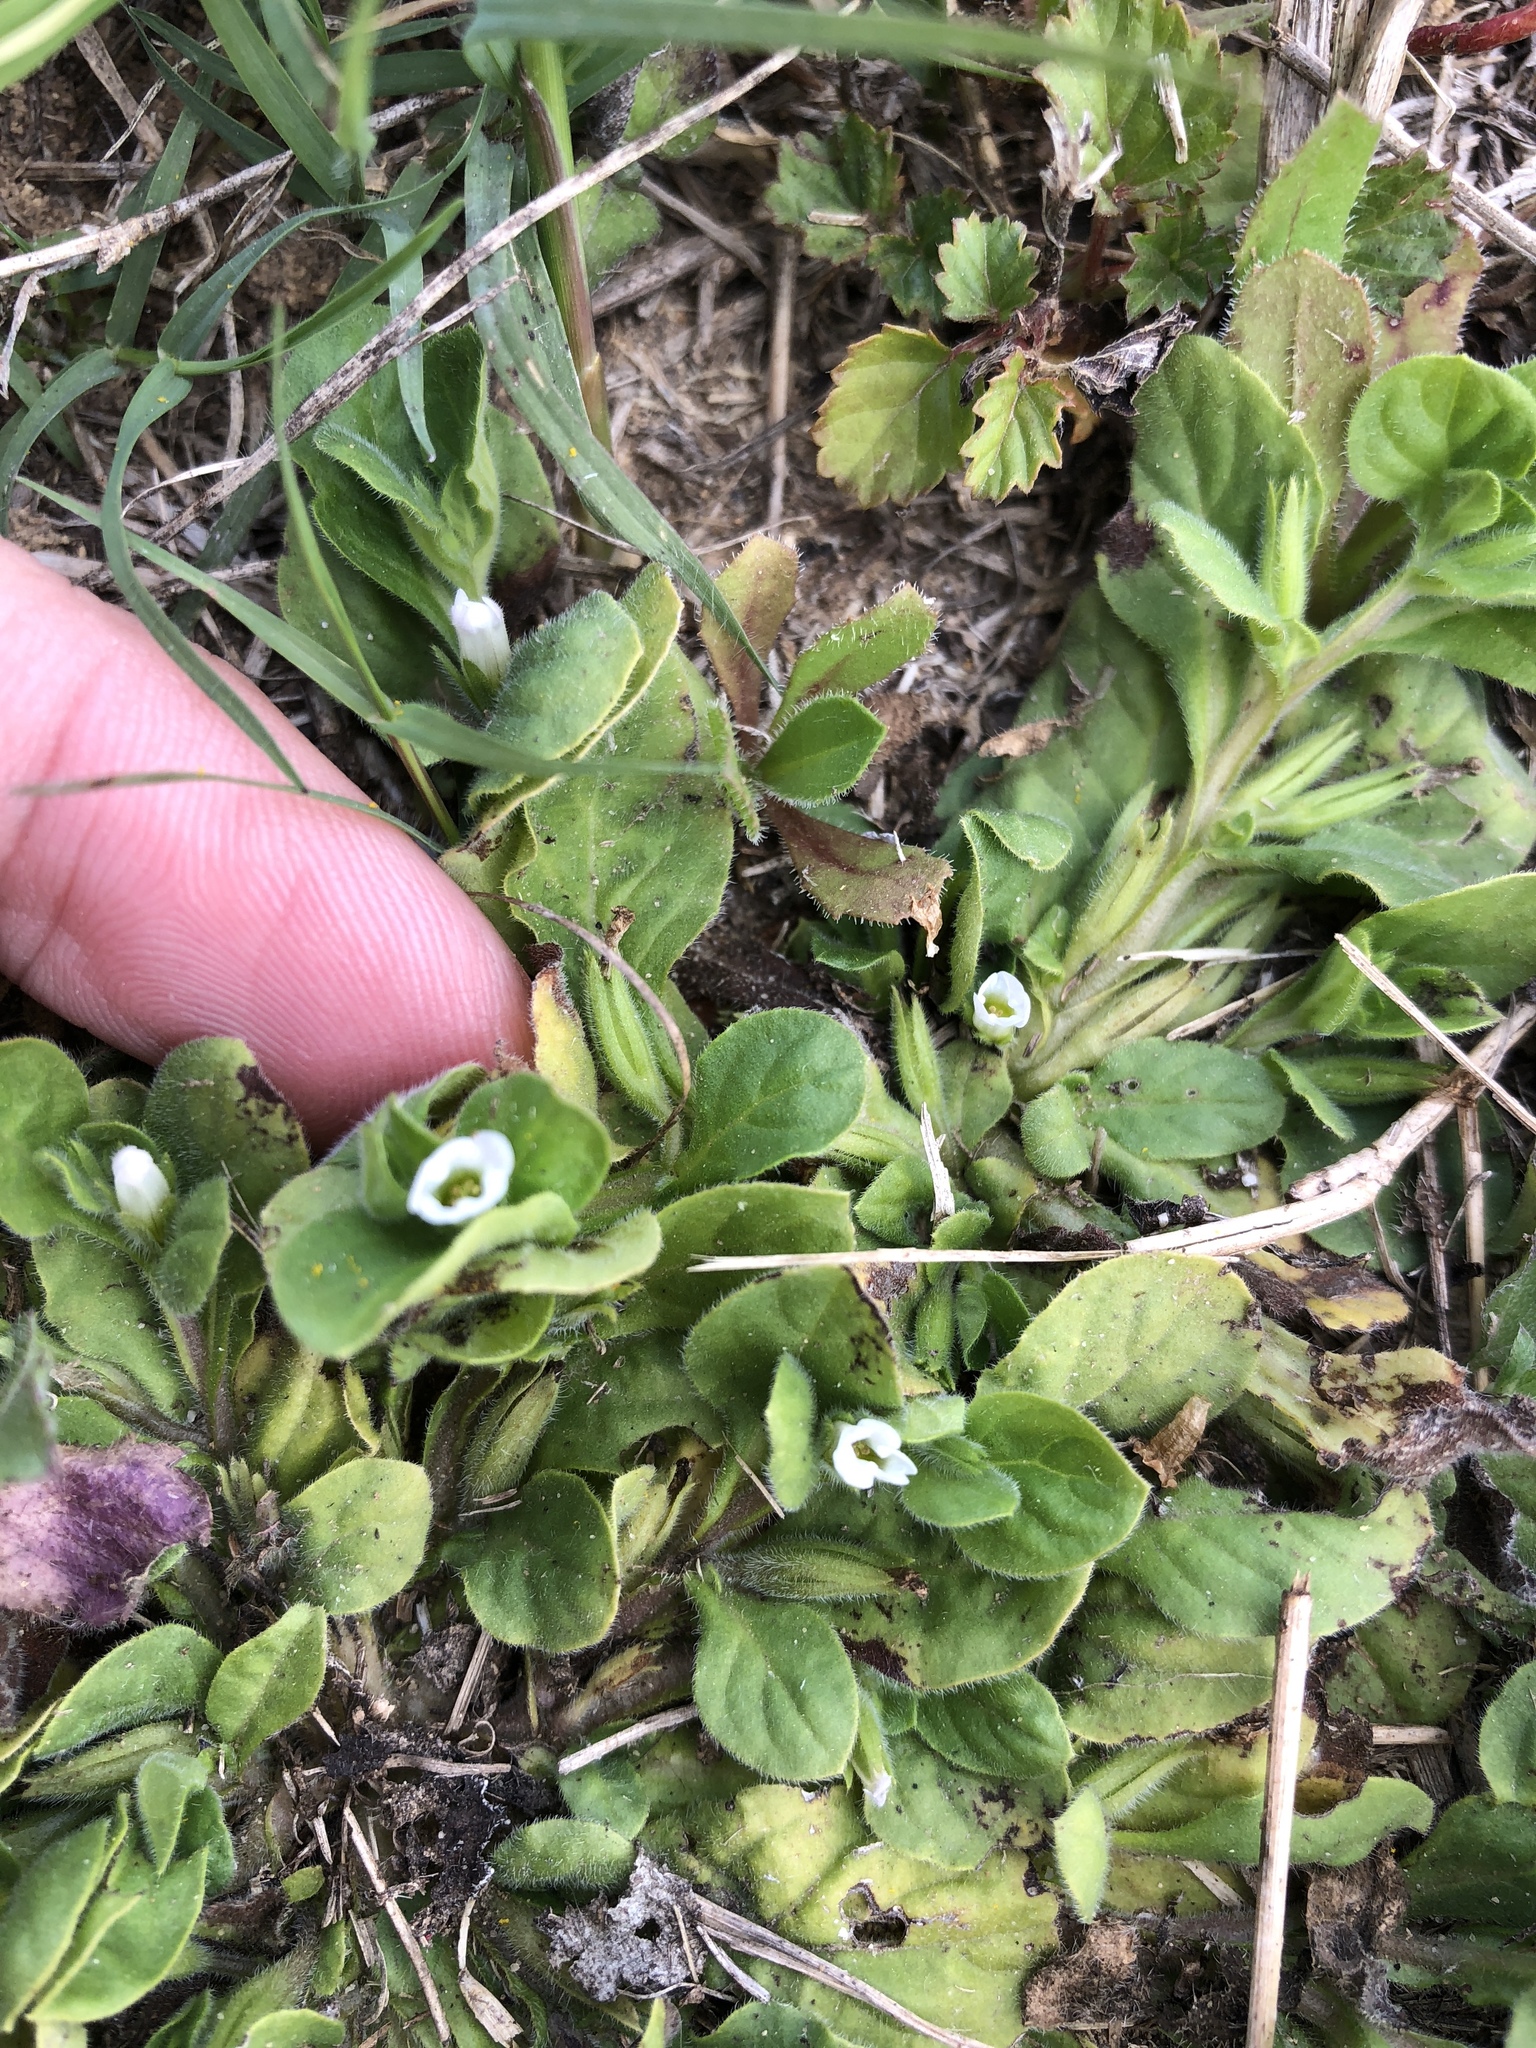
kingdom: Plantae
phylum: Tracheophyta
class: Magnoliopsida
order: Boraginales
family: Namaceae
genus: Nama
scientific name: Nama jamaicensis
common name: Jamaicanweed
